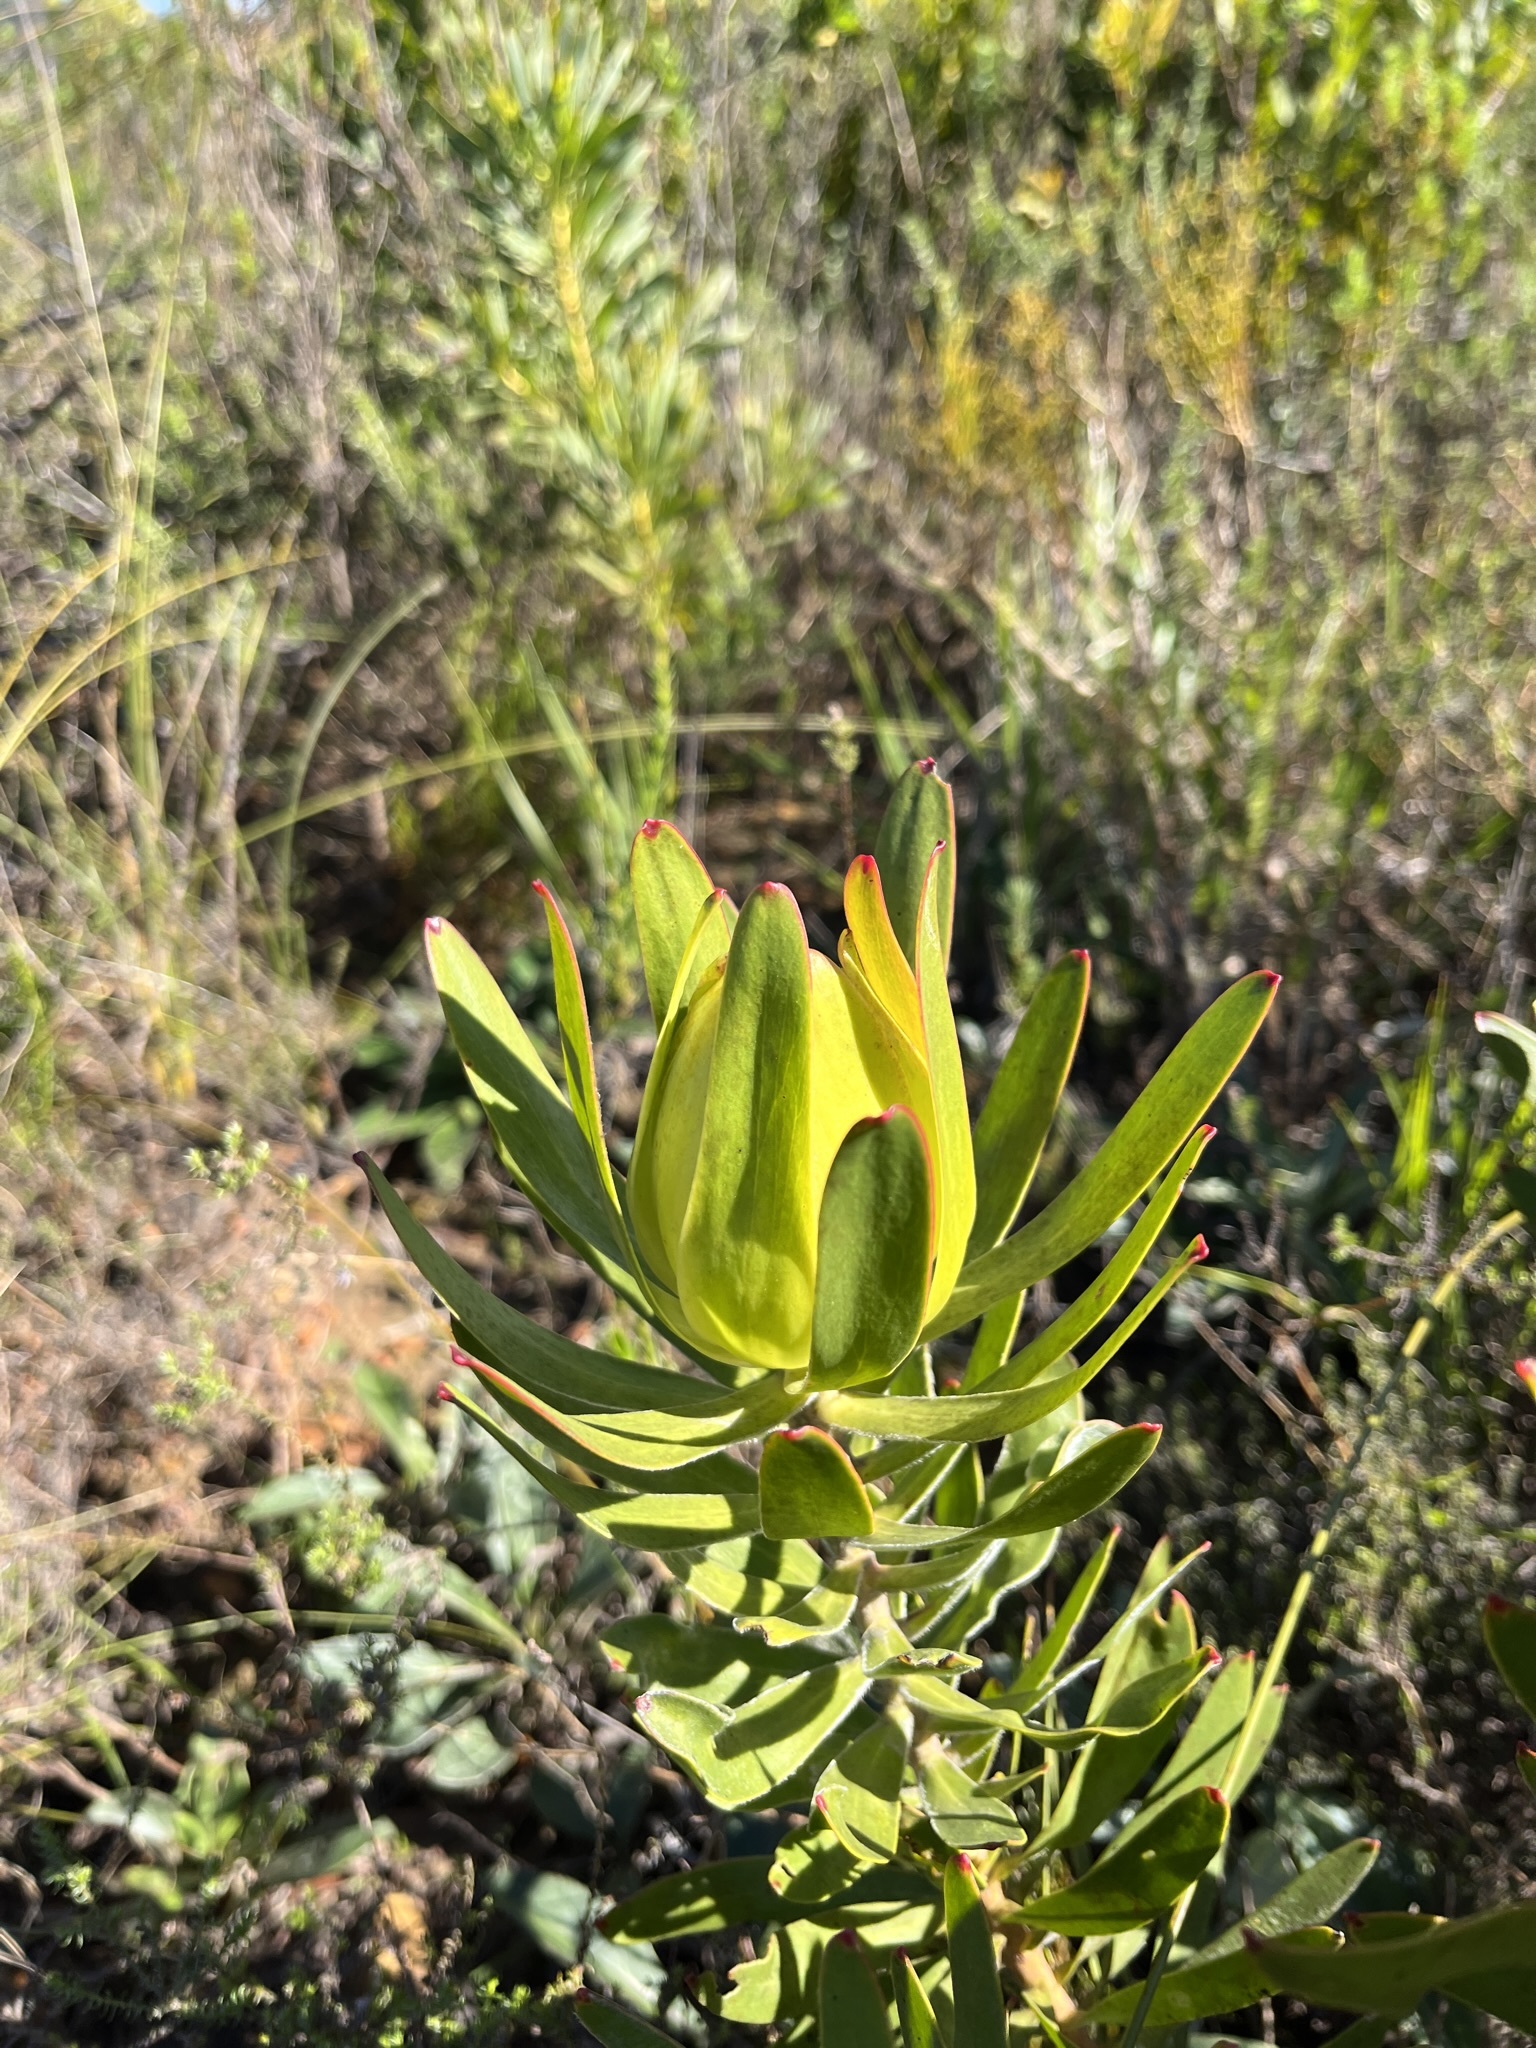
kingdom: Plantae
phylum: Tracheophyta
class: Magnoliopsida
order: Proteales
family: Proteaceae
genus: Leucadendron
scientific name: Leucadendron laureolum
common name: Golden sunshinebush
